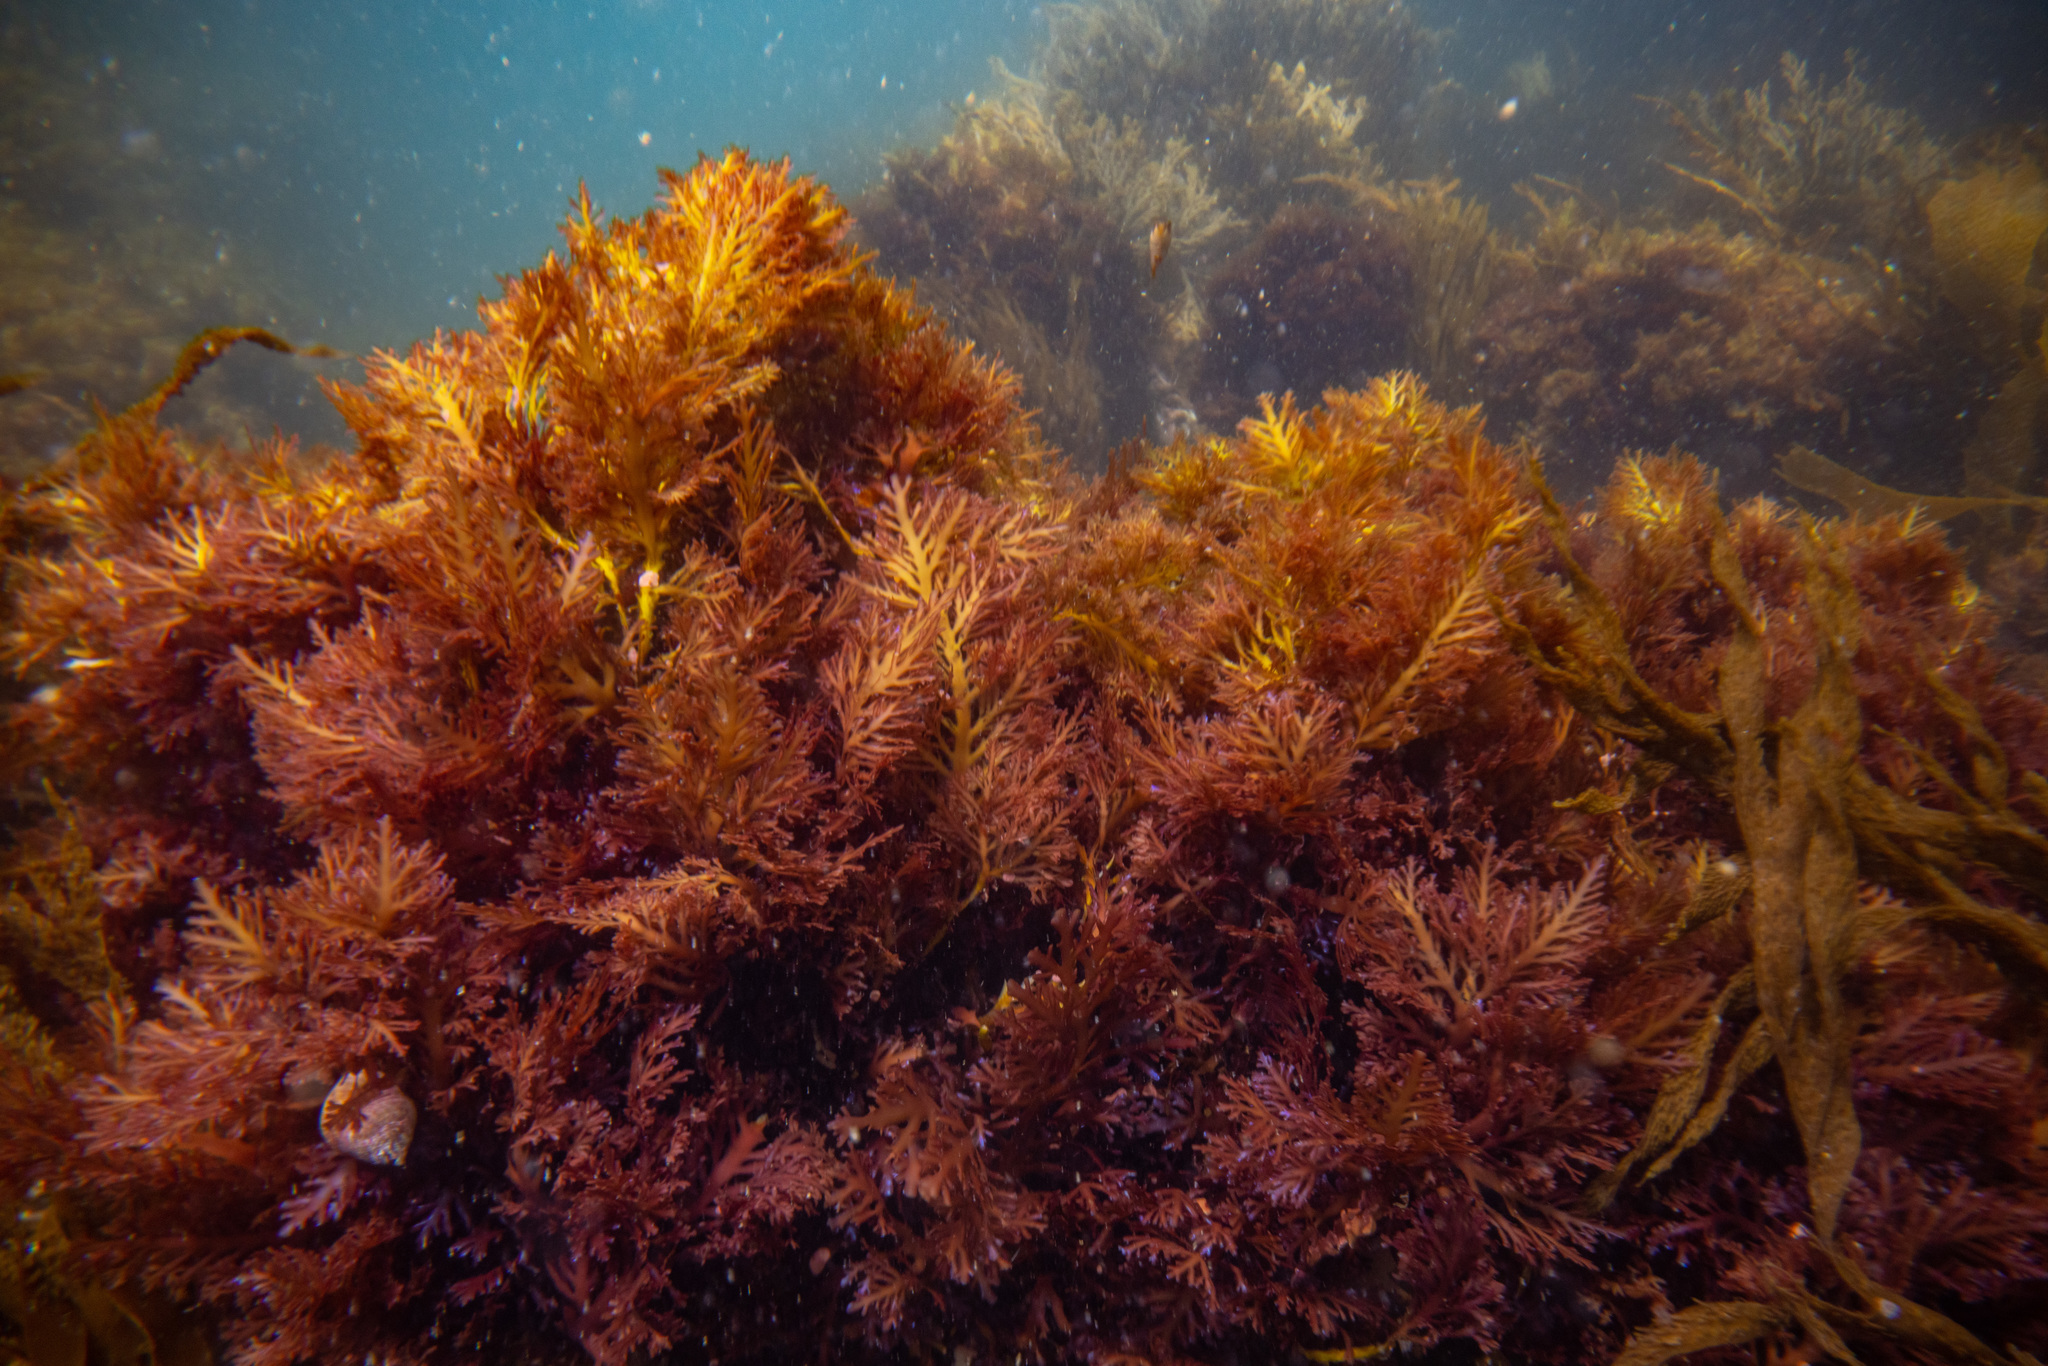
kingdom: Plantae
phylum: Rhodophyta
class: Florideophyceae
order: Gelidiales
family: Pterocladiaceae
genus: Pterocladia
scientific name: Pterocladia lucida
